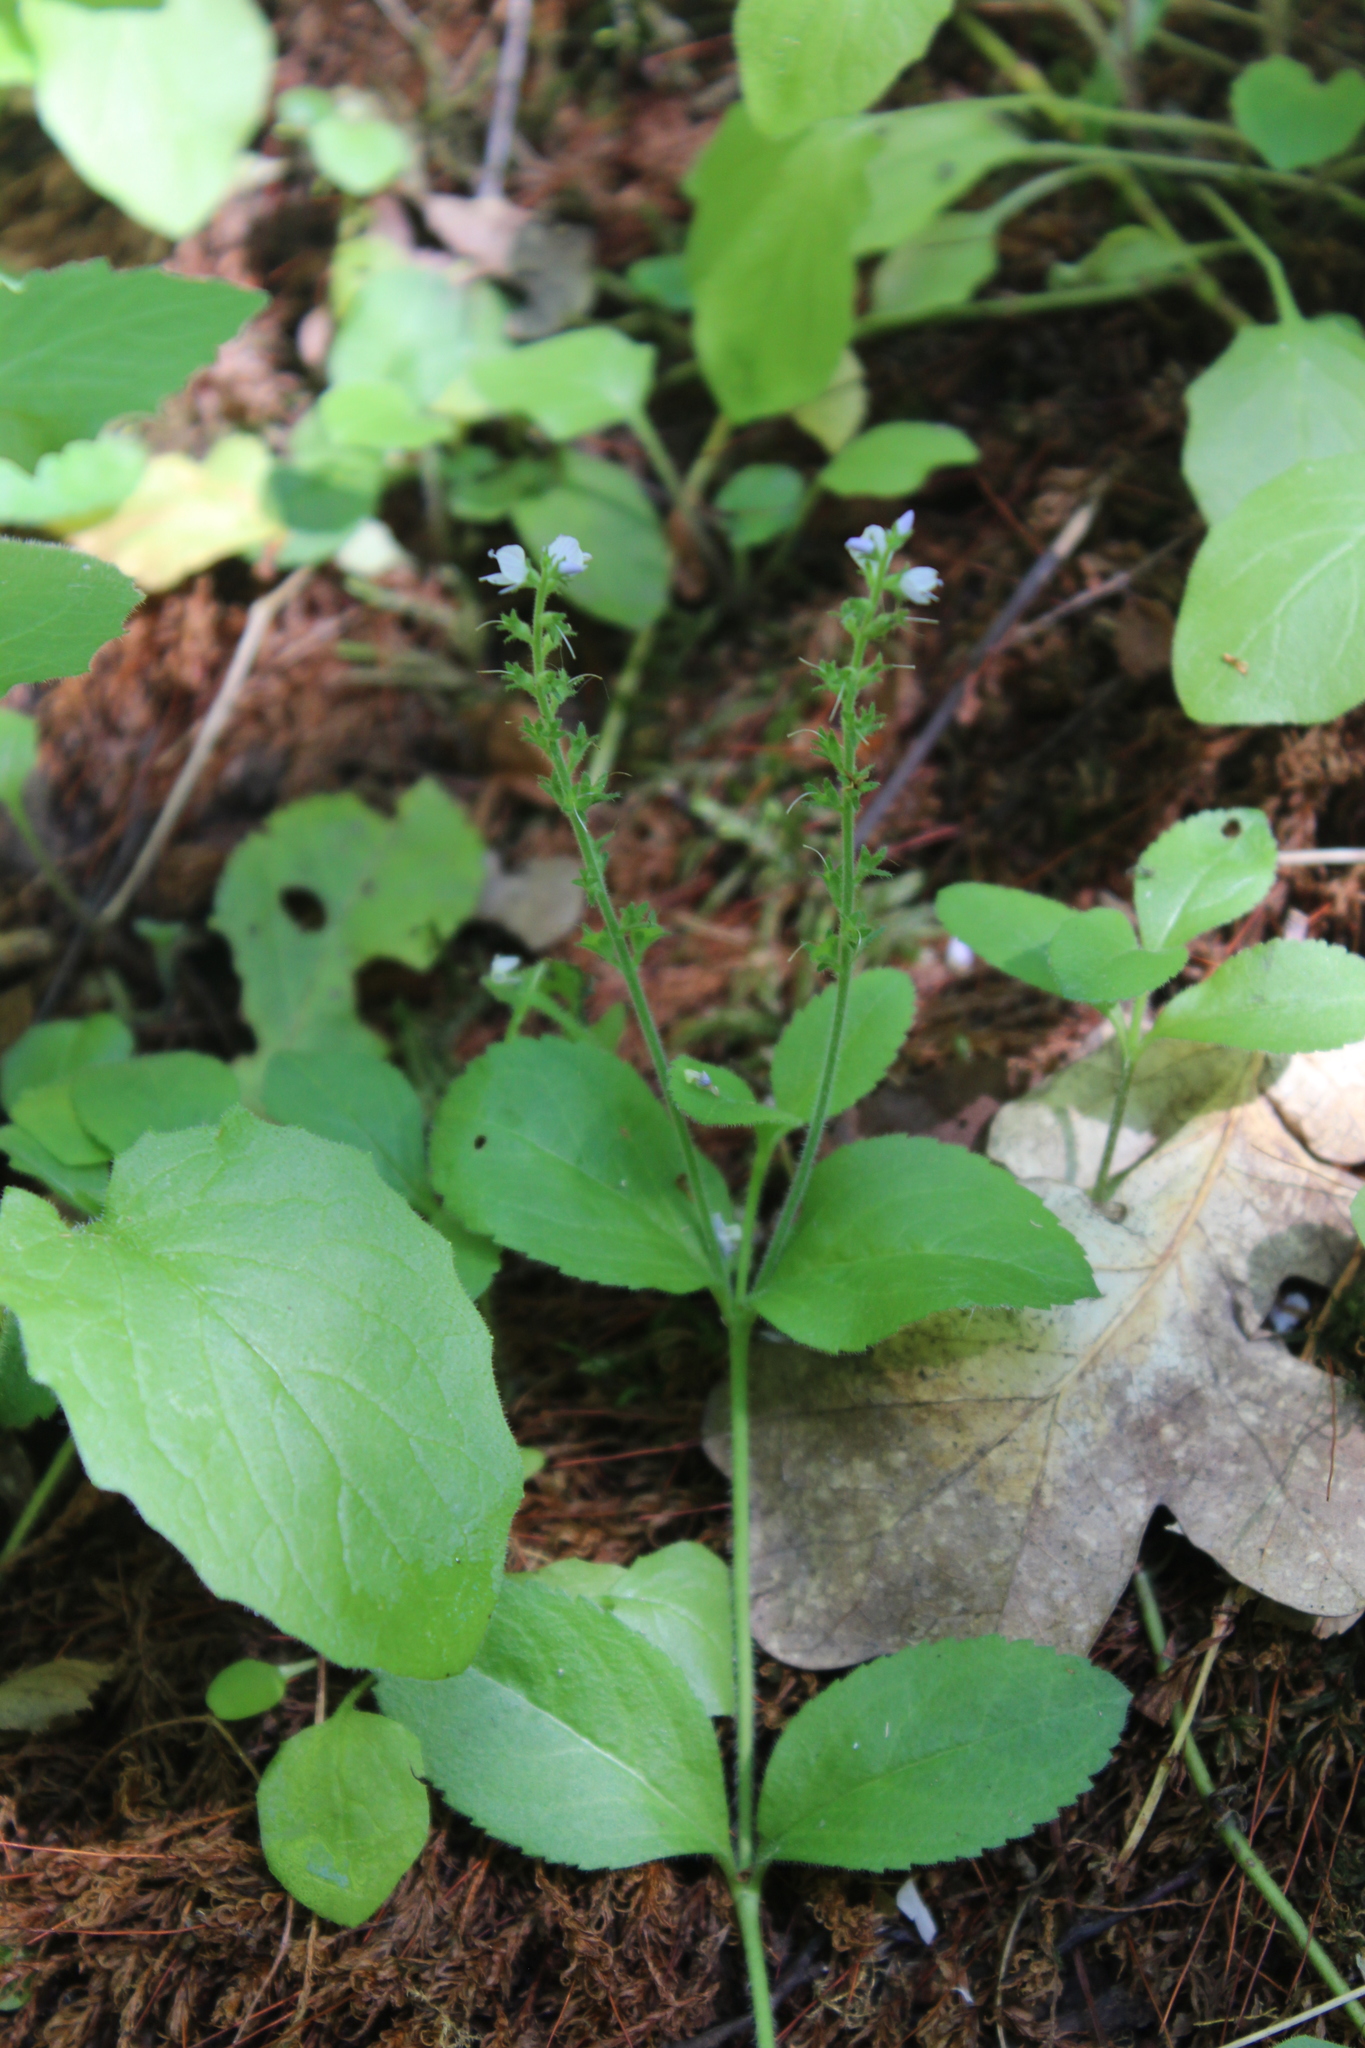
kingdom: Plantae
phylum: Tracheophyta
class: Magnoliopsida
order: Lamiales
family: Plantaginaceae
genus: Veronica
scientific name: Veronica officinalis
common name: Common speedwell
